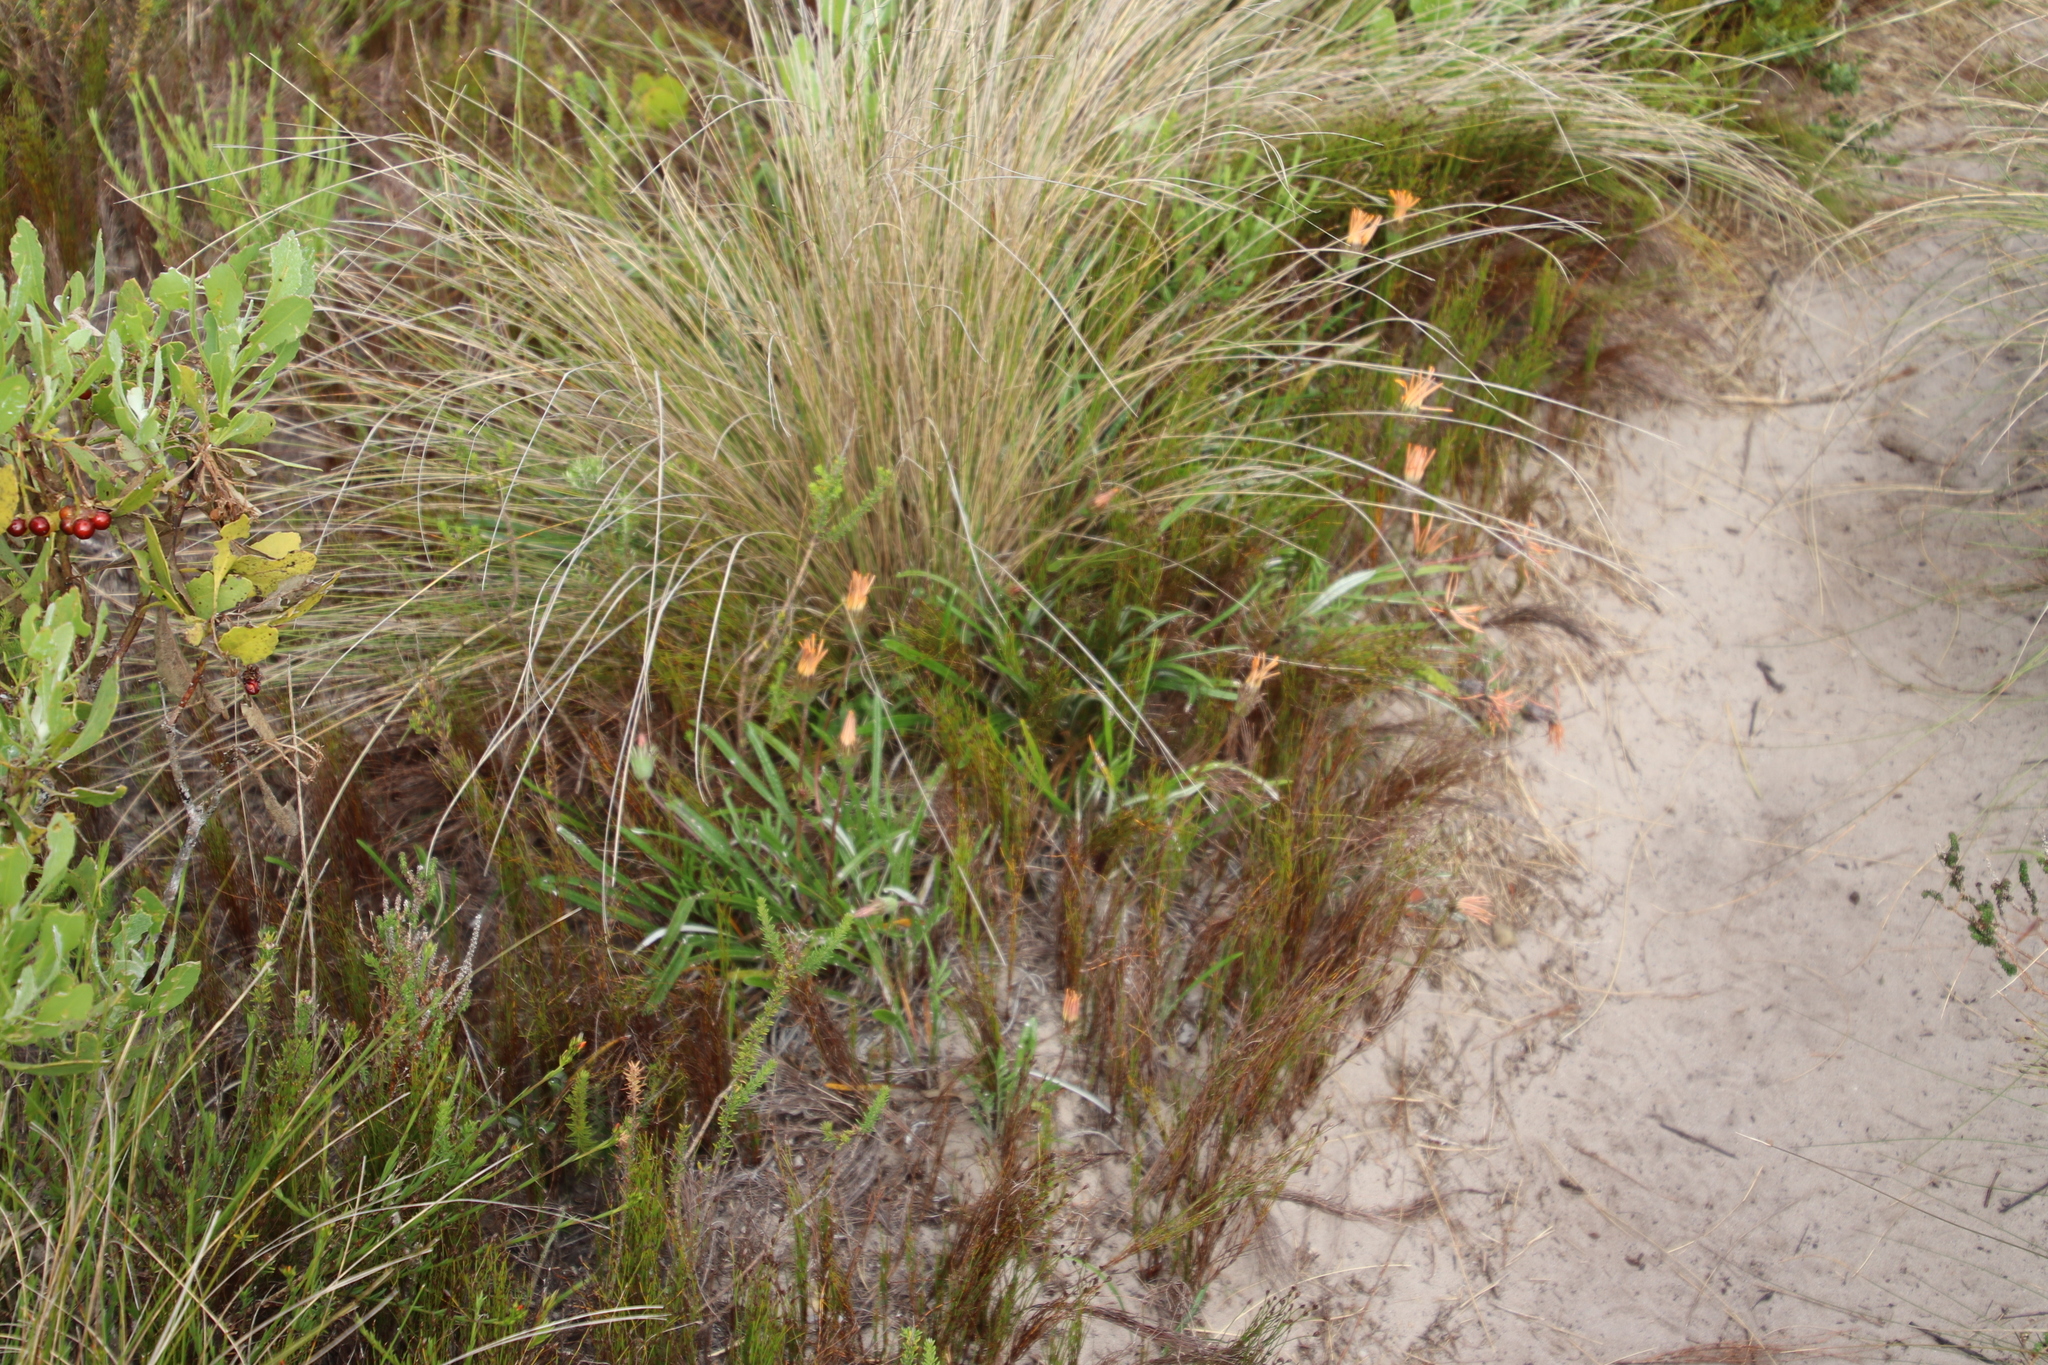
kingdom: Plantae
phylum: Tracheophyta
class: Magnoliopsida
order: Asterales
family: Asteraceae
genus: Gazania
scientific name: Gazania pectinata
